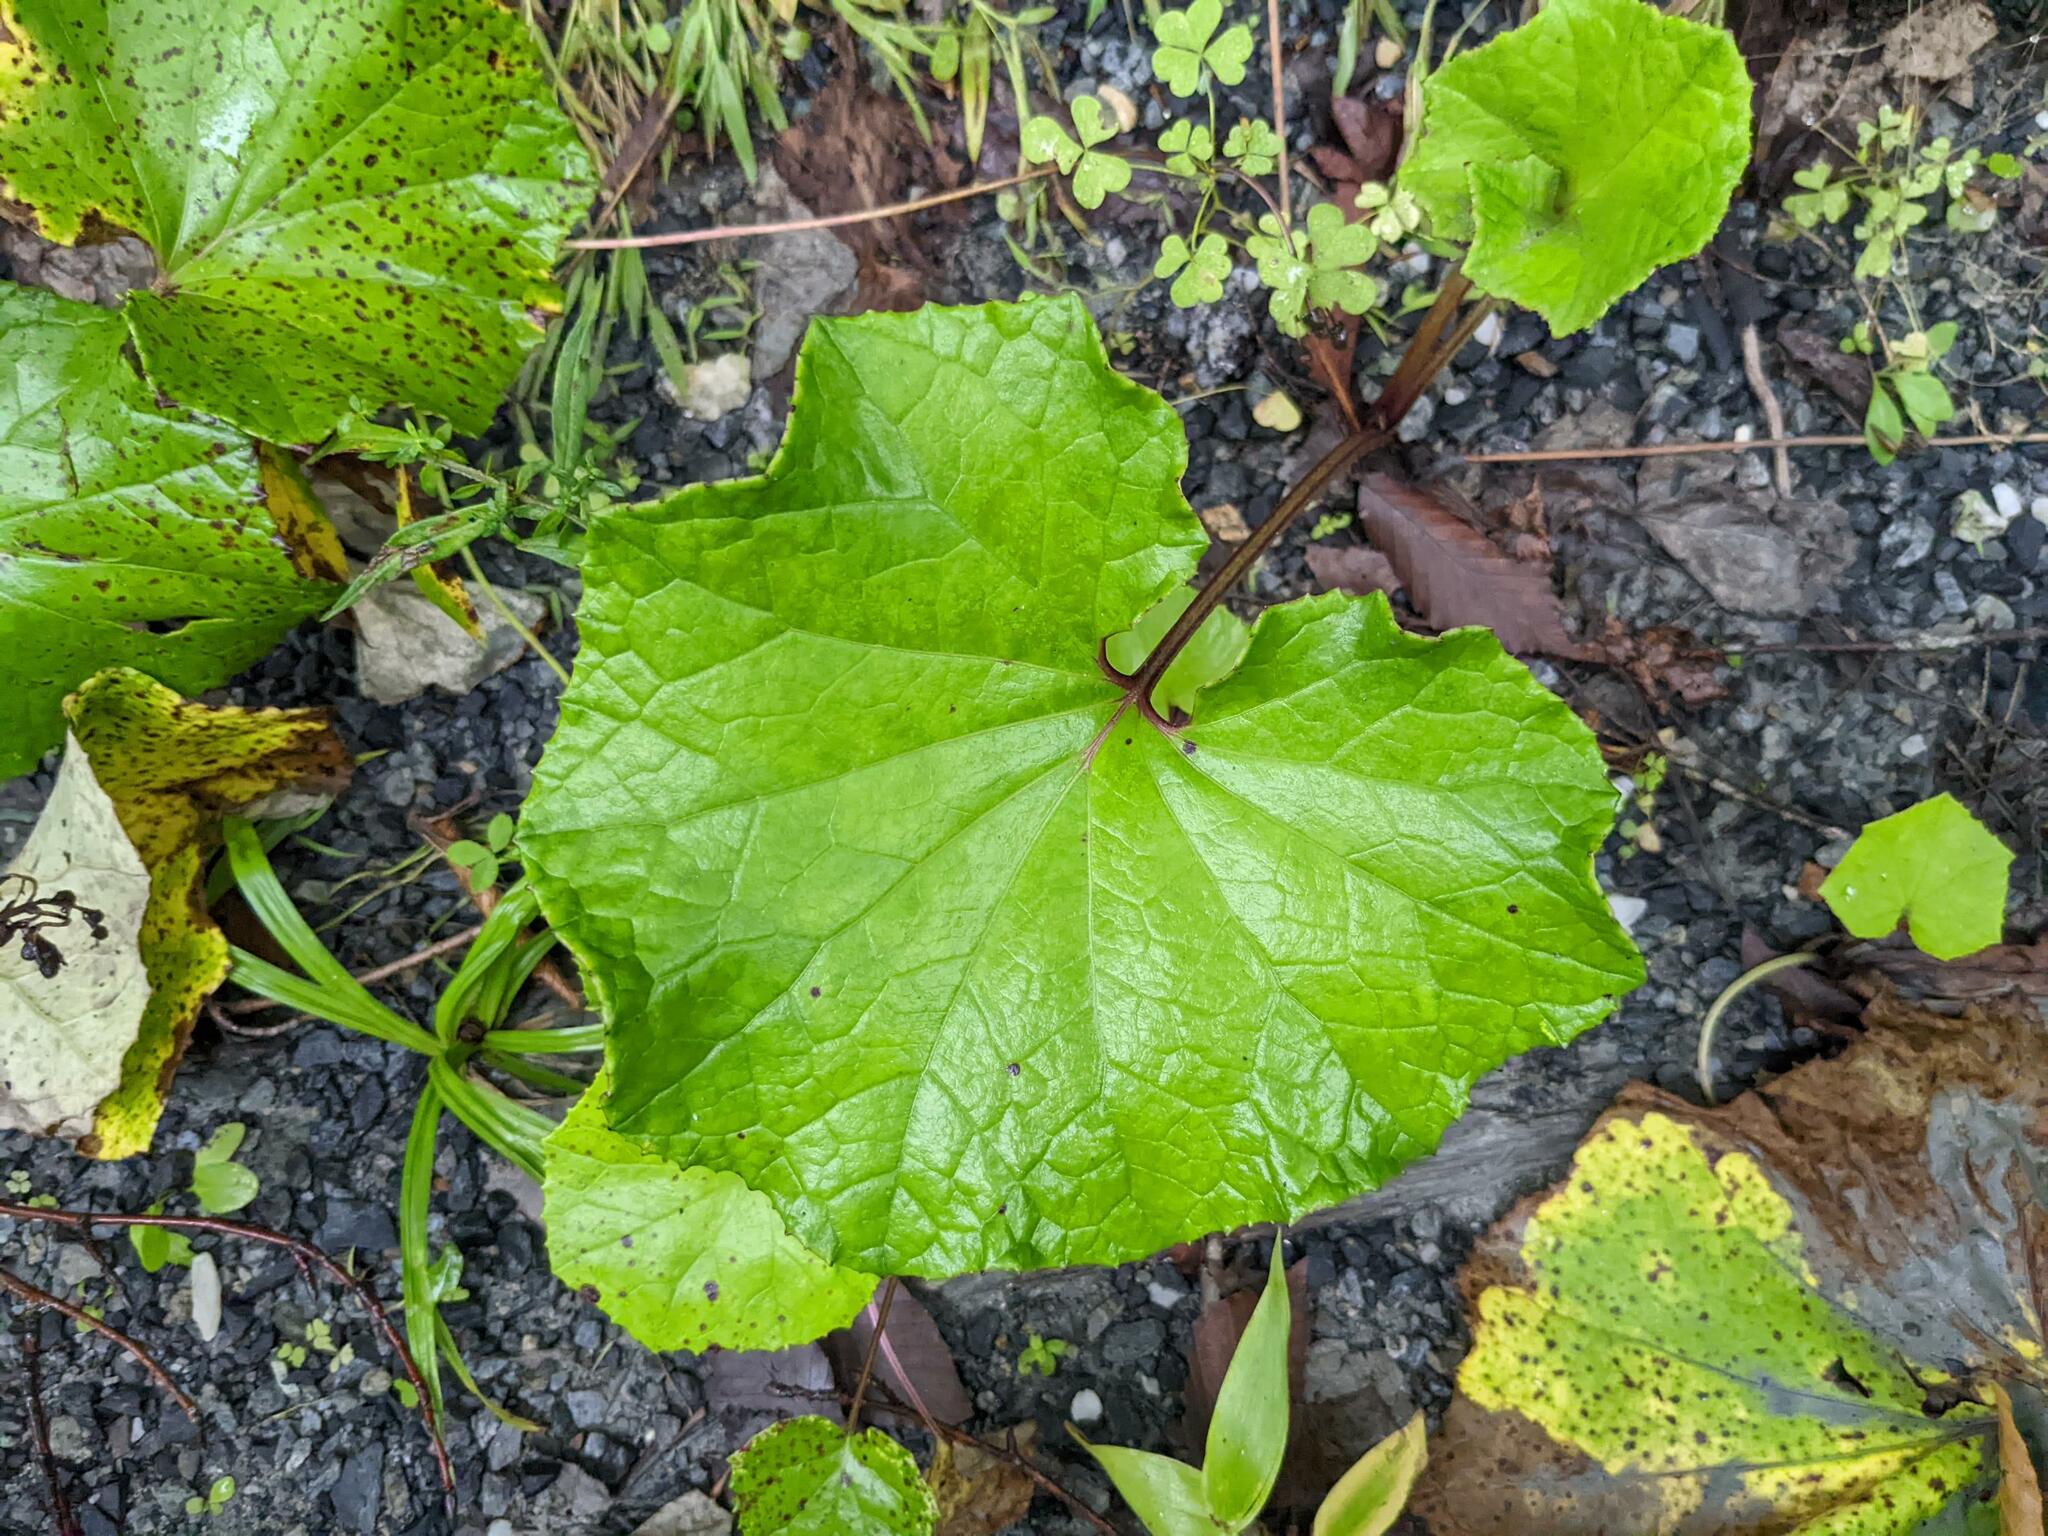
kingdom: Plantae
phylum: Tracheophyta
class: Magnoliopsida
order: Asterales
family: Asteraceae
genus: Tussilago
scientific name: Tussilago farfara
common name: Coltsfoot
